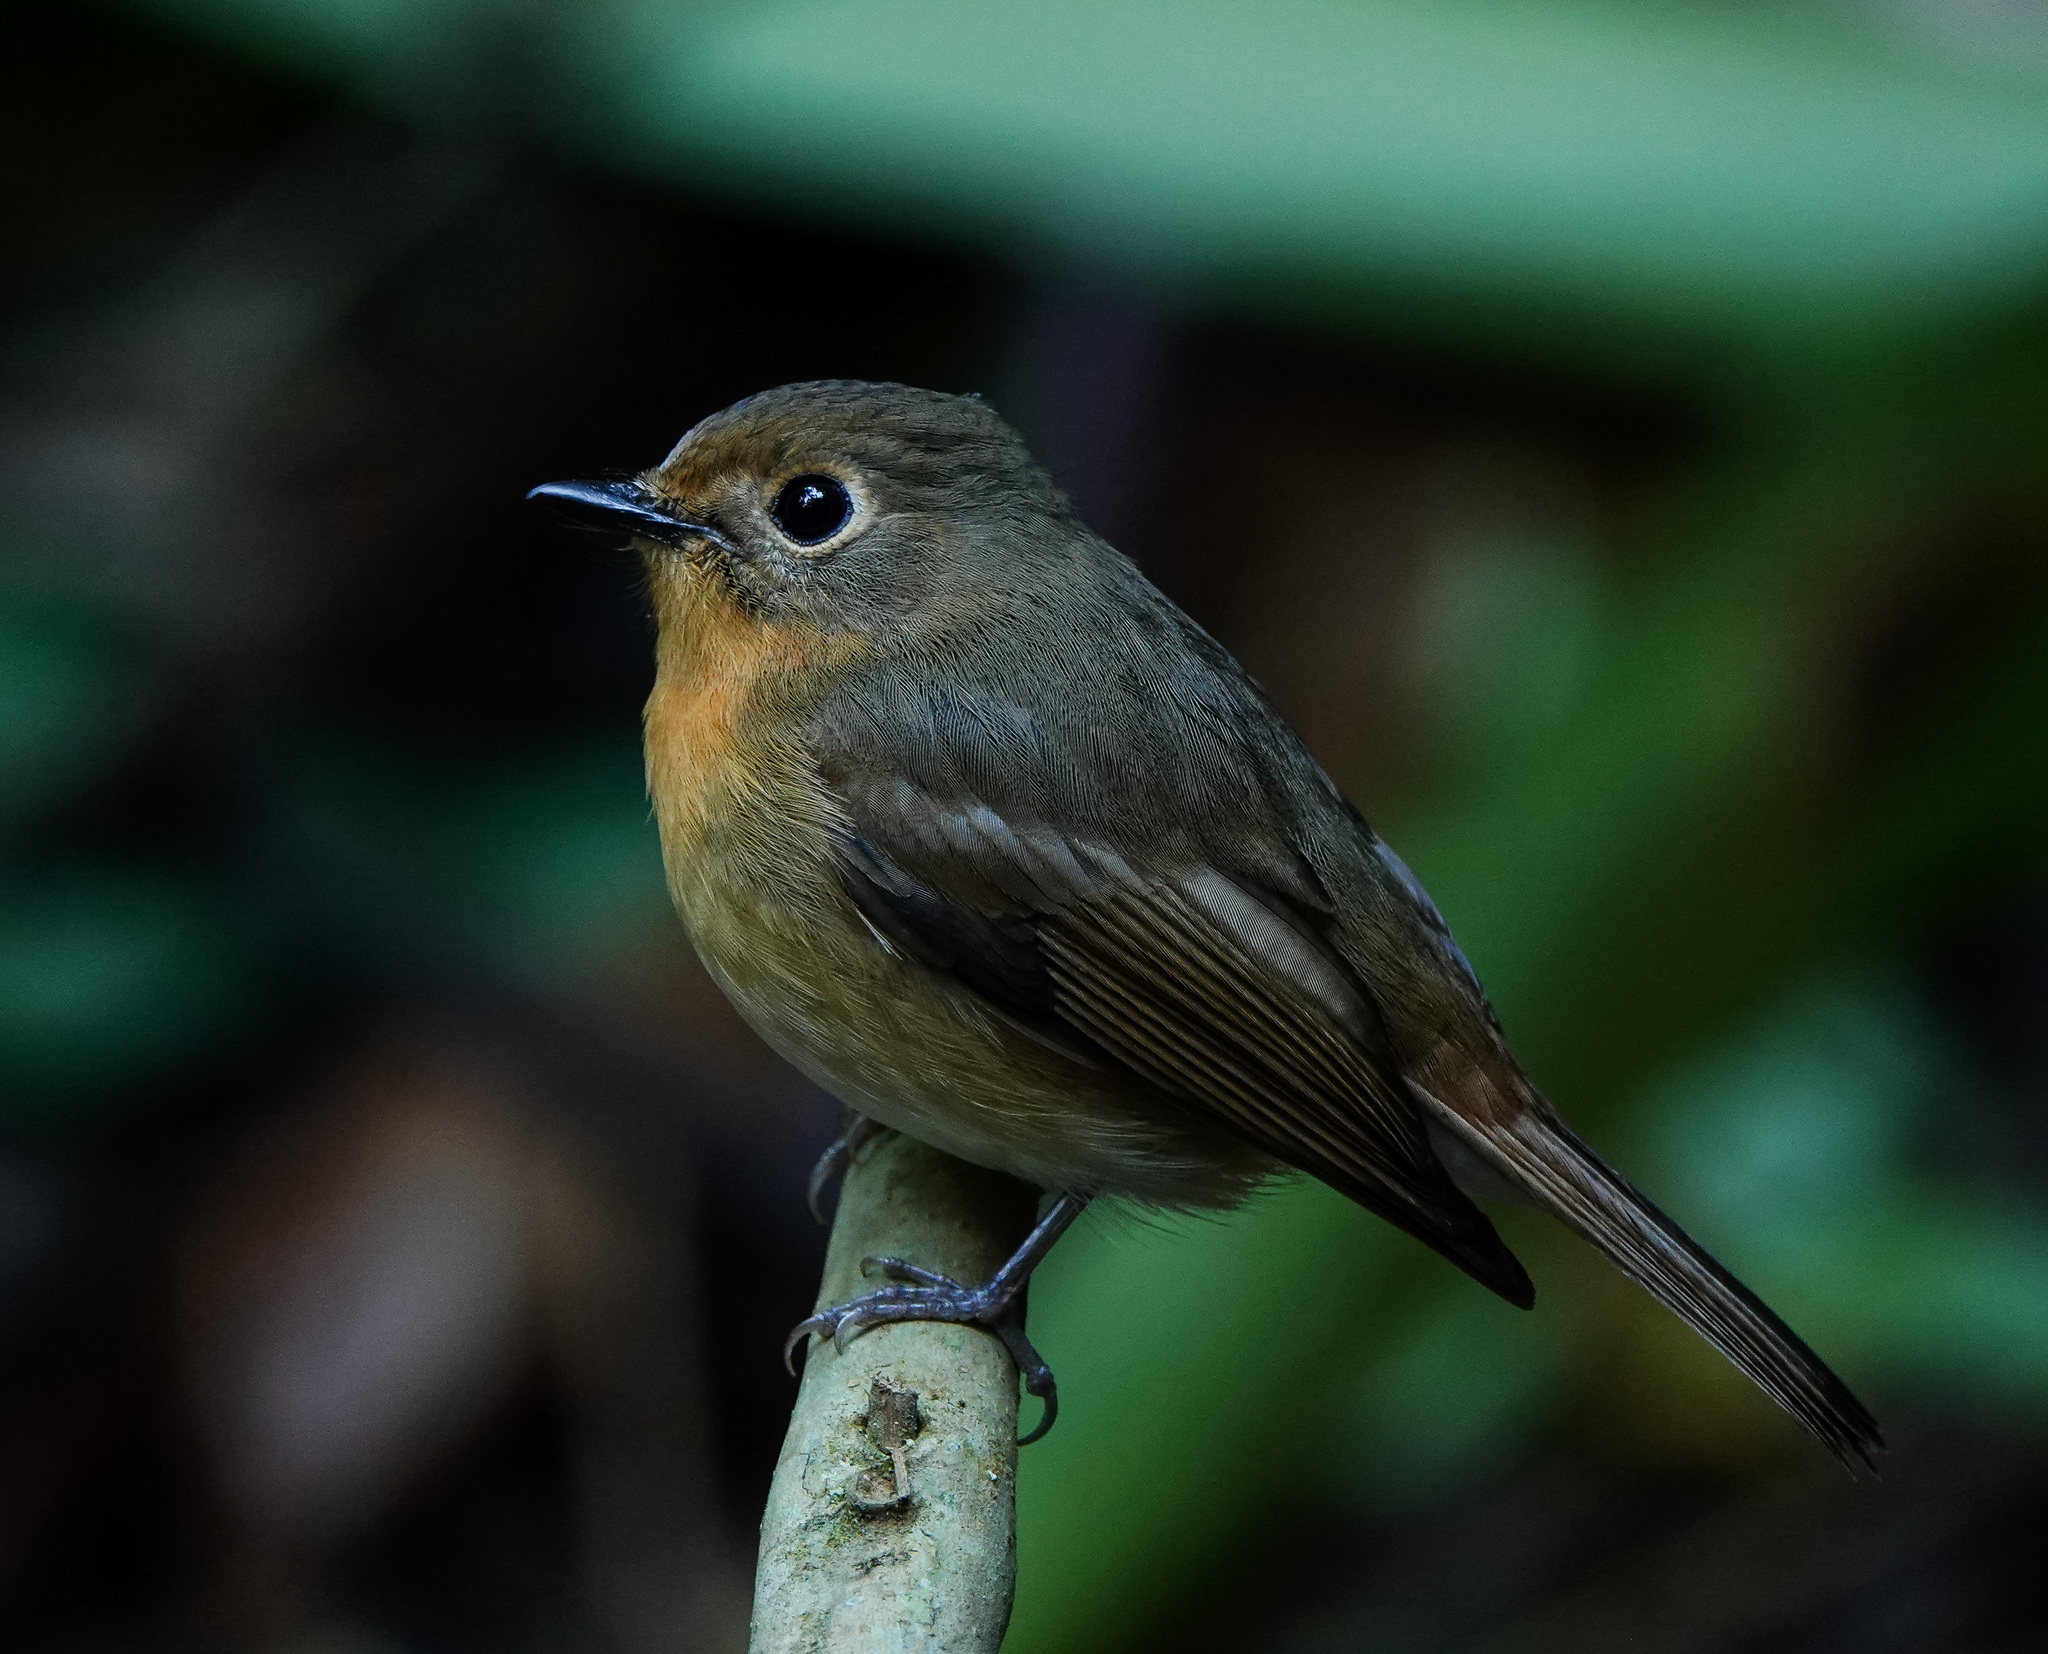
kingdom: Animalia
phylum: Chordata
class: Aves
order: Passeriformes
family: Muscicapidae
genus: Cyornis
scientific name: Cyornis whitei
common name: Hill blue flycatcher
